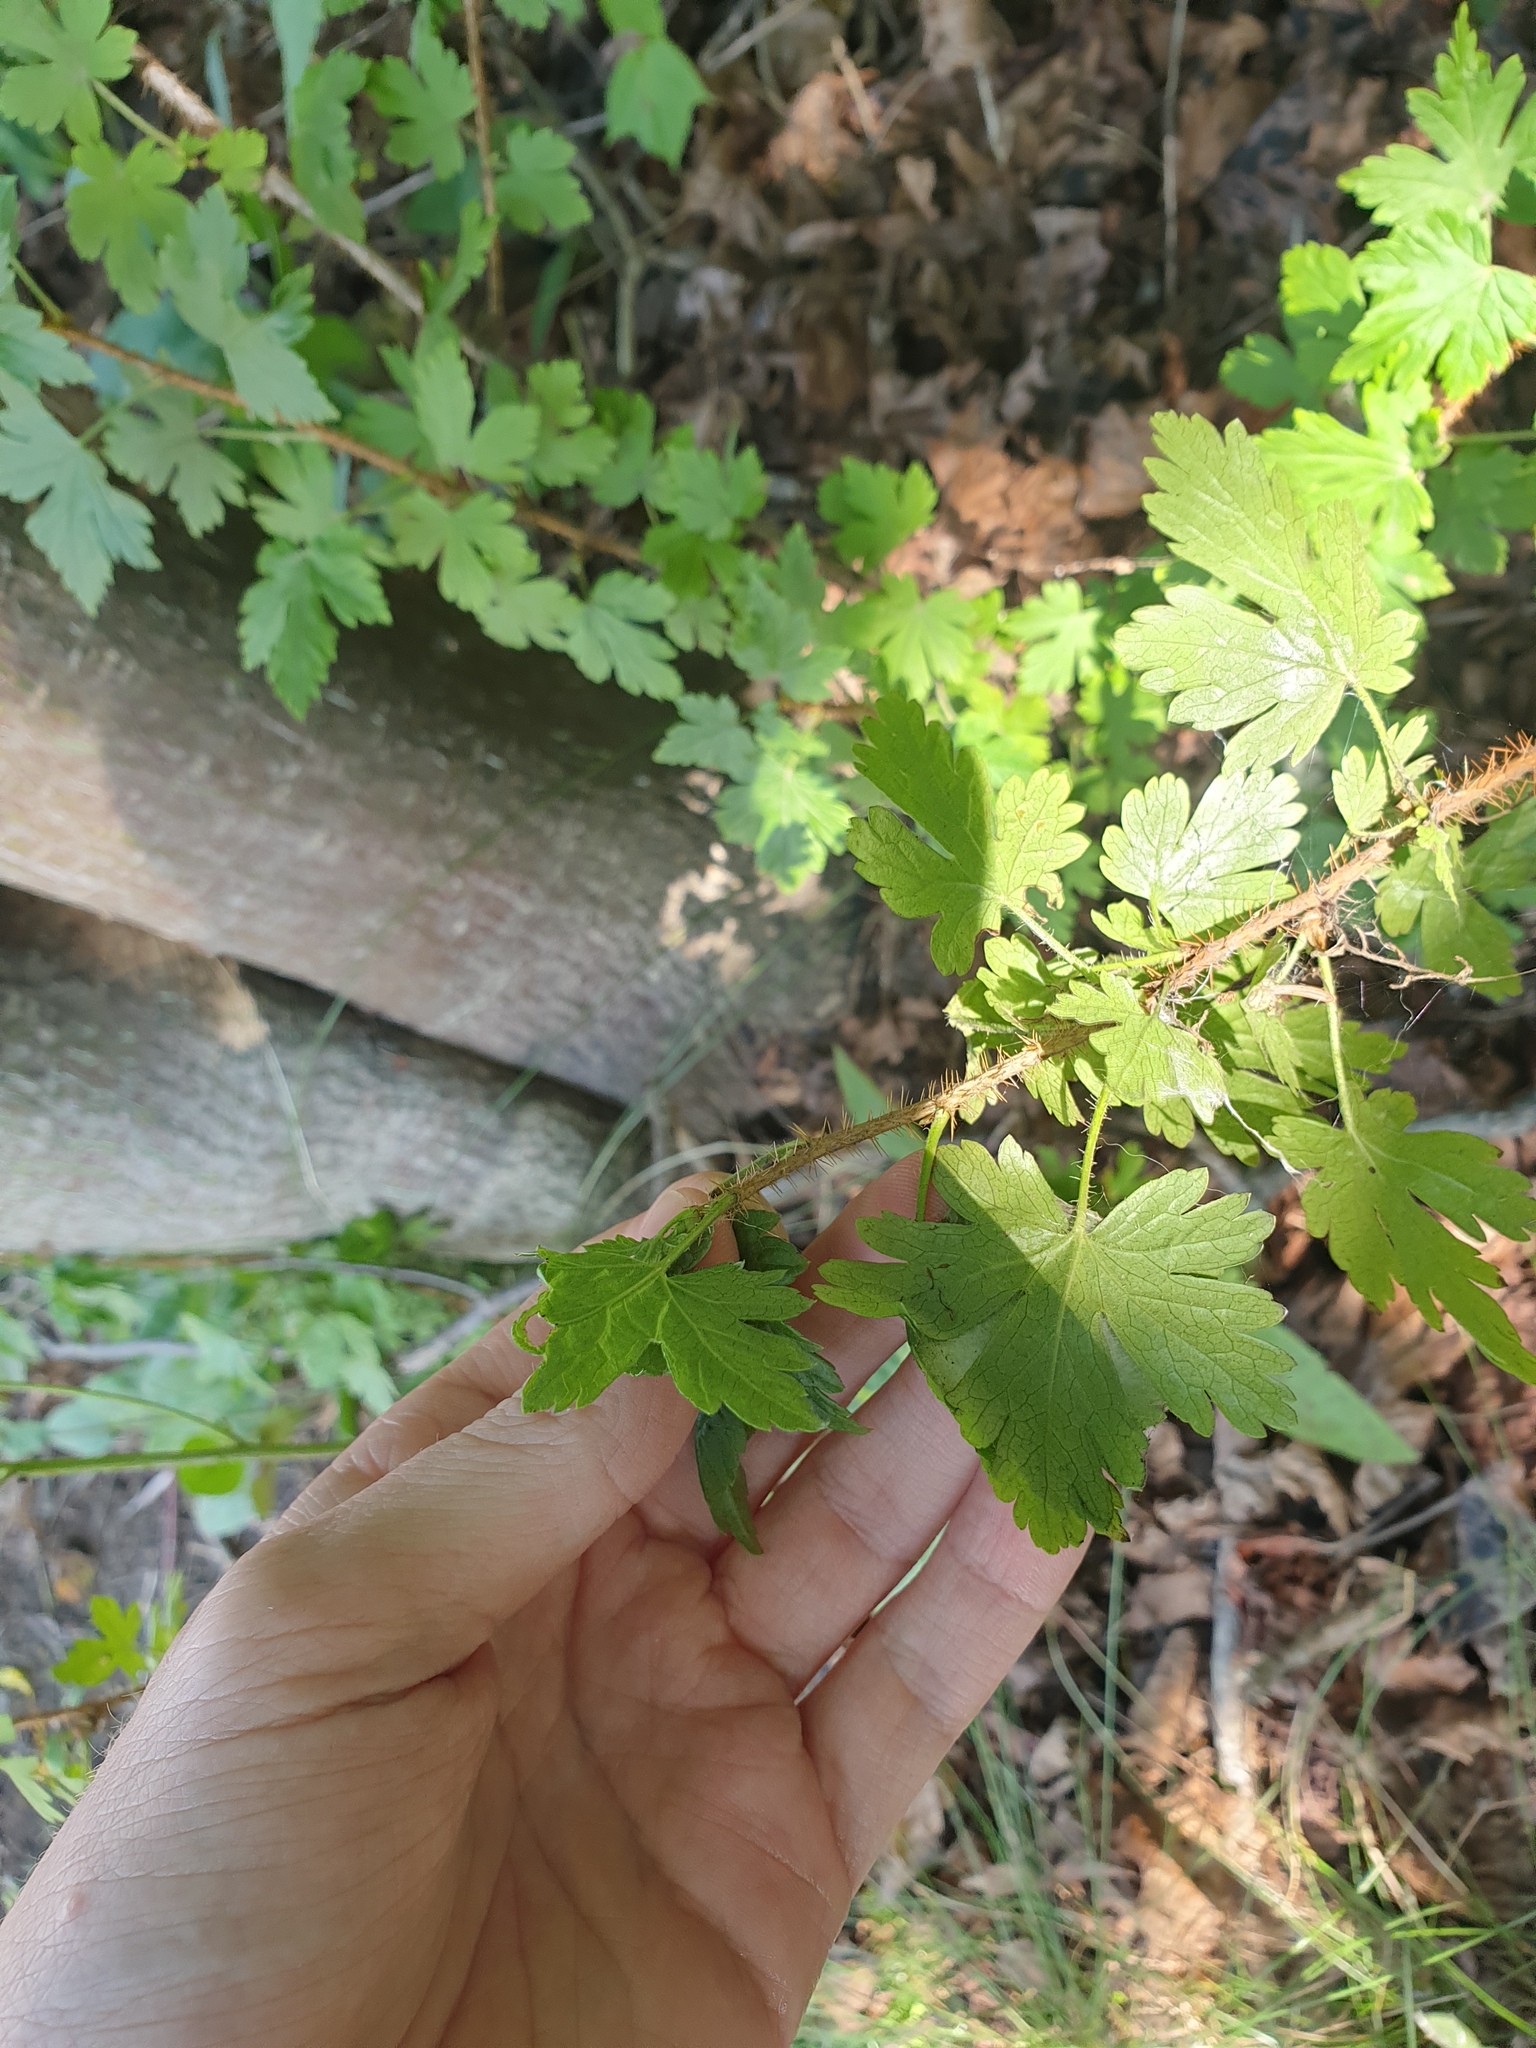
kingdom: Plantae
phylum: Tracheophyta
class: Magnoliopsida
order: Saxifragales
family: Grossulariaceae
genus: Ribes
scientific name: Ribes lacustre
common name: Black gooseberry
